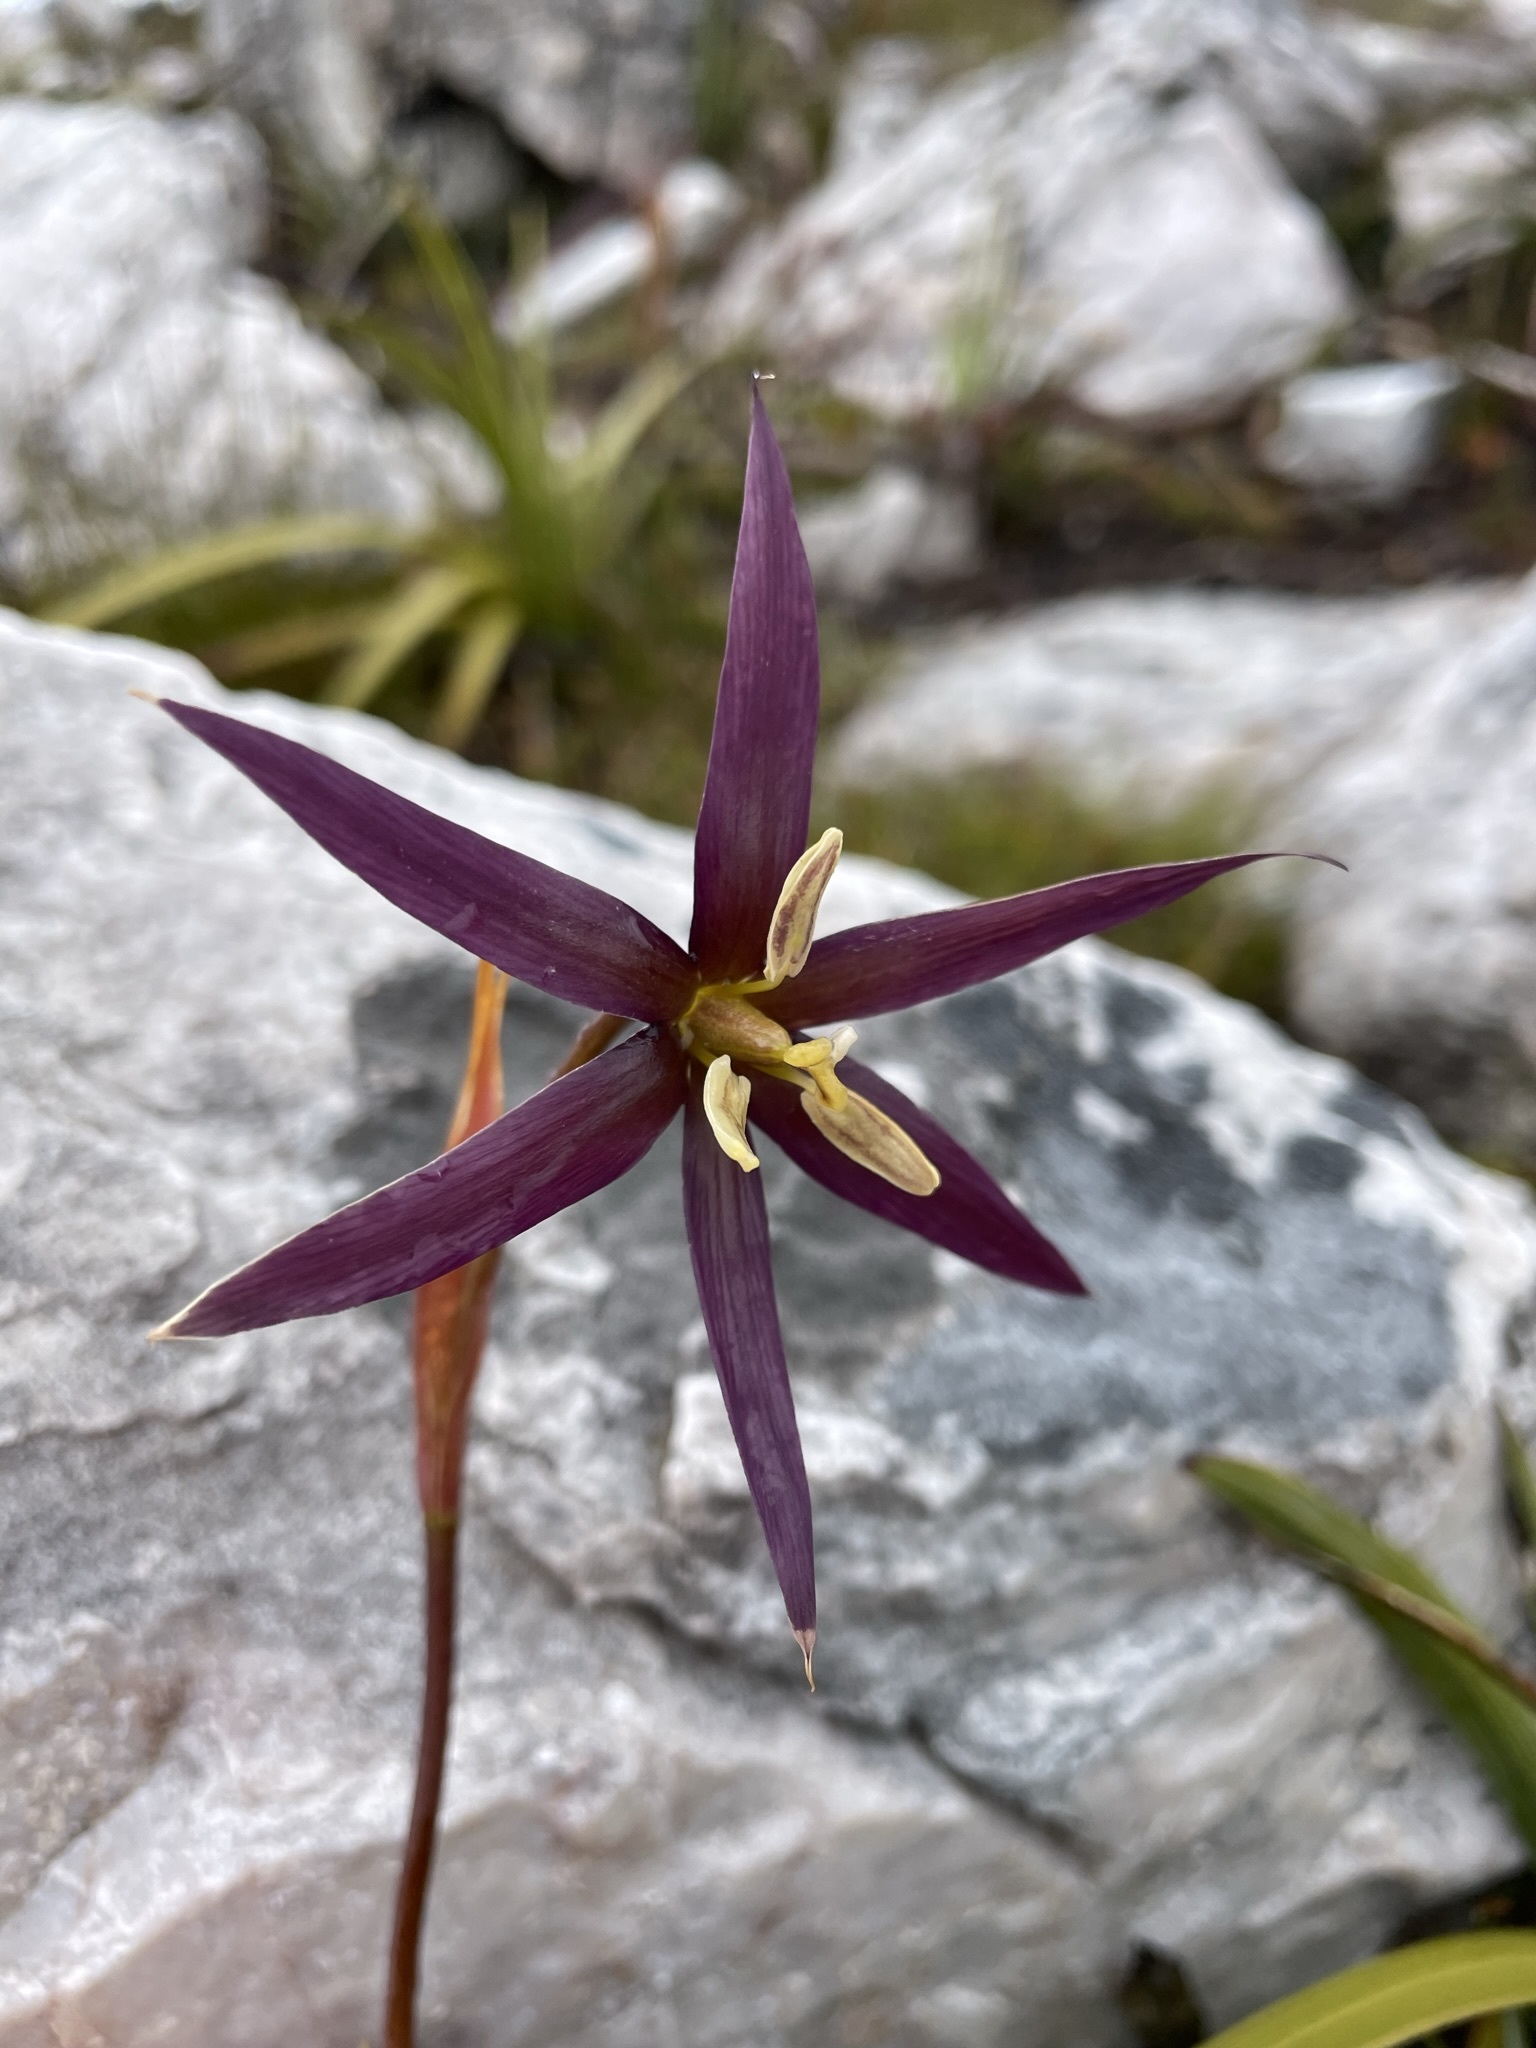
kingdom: Plantae
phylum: Tracheophyta
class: Liliopsida
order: Asparagales
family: Iridaceae
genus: Isophysis
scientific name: Isophysis tasmanica
